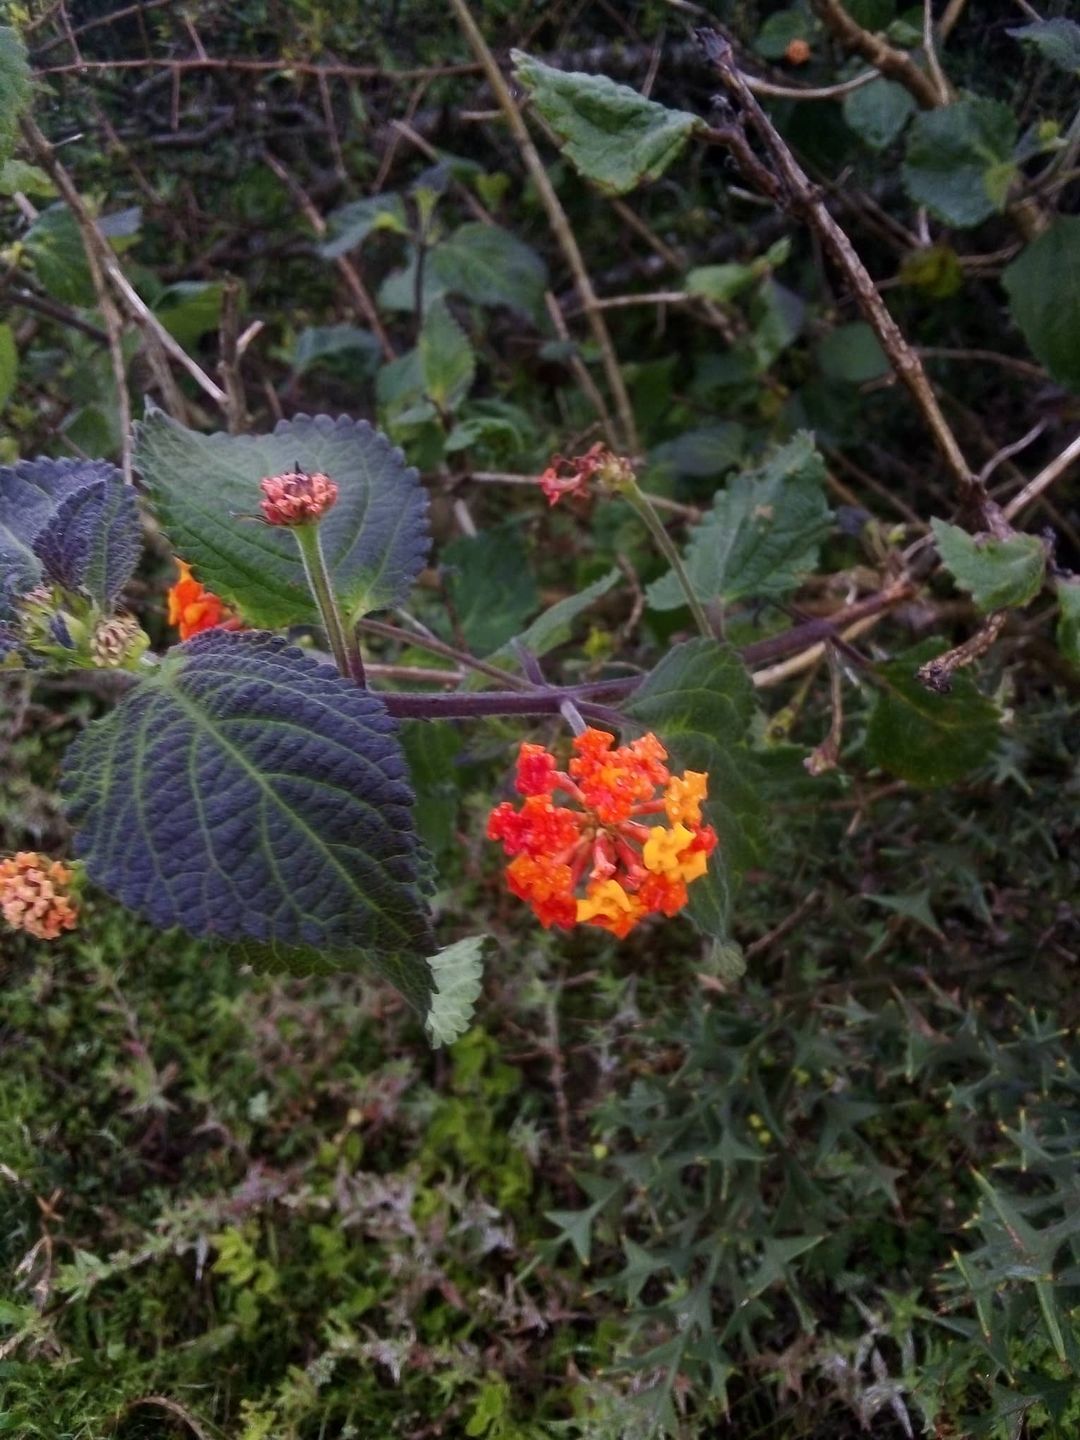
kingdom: Plantae
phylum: Tracheophyta
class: Magnoliopsida
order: Lamiales
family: Verbenaceae
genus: Lantana
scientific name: Lantana camara
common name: Lantana
